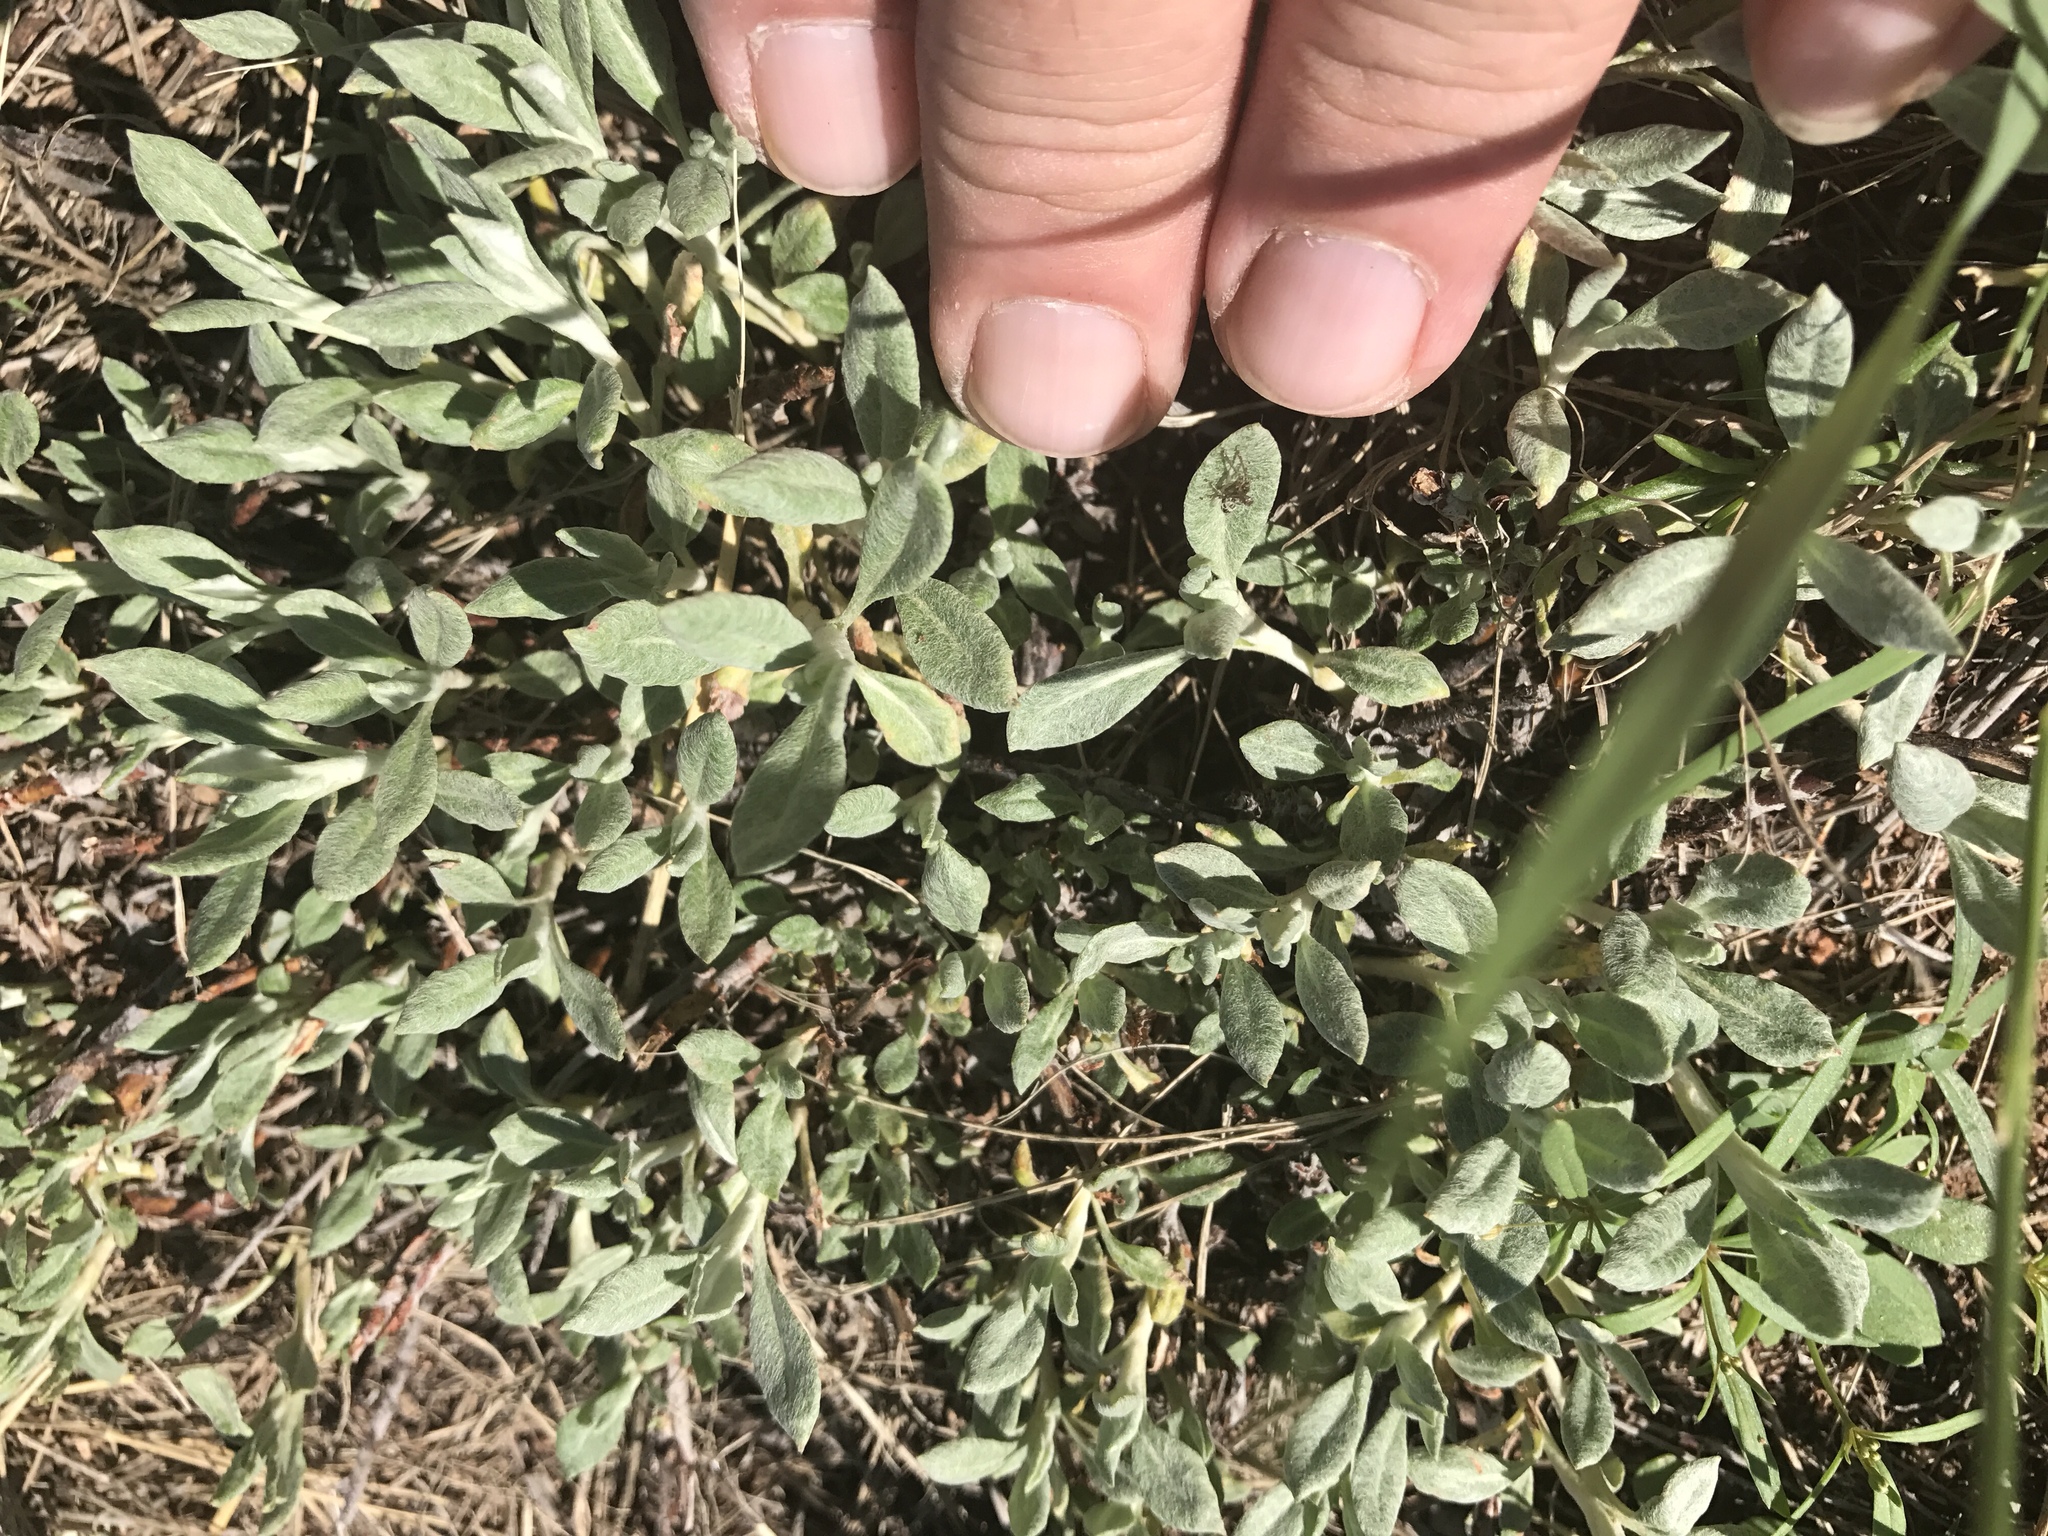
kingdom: Plantae
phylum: Tracheophyta
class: Magnoliopsida
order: Caryophyllales
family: Polygonaceae
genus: Eriogonum
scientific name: Eriogonum wrightii
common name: Bastard-sage
